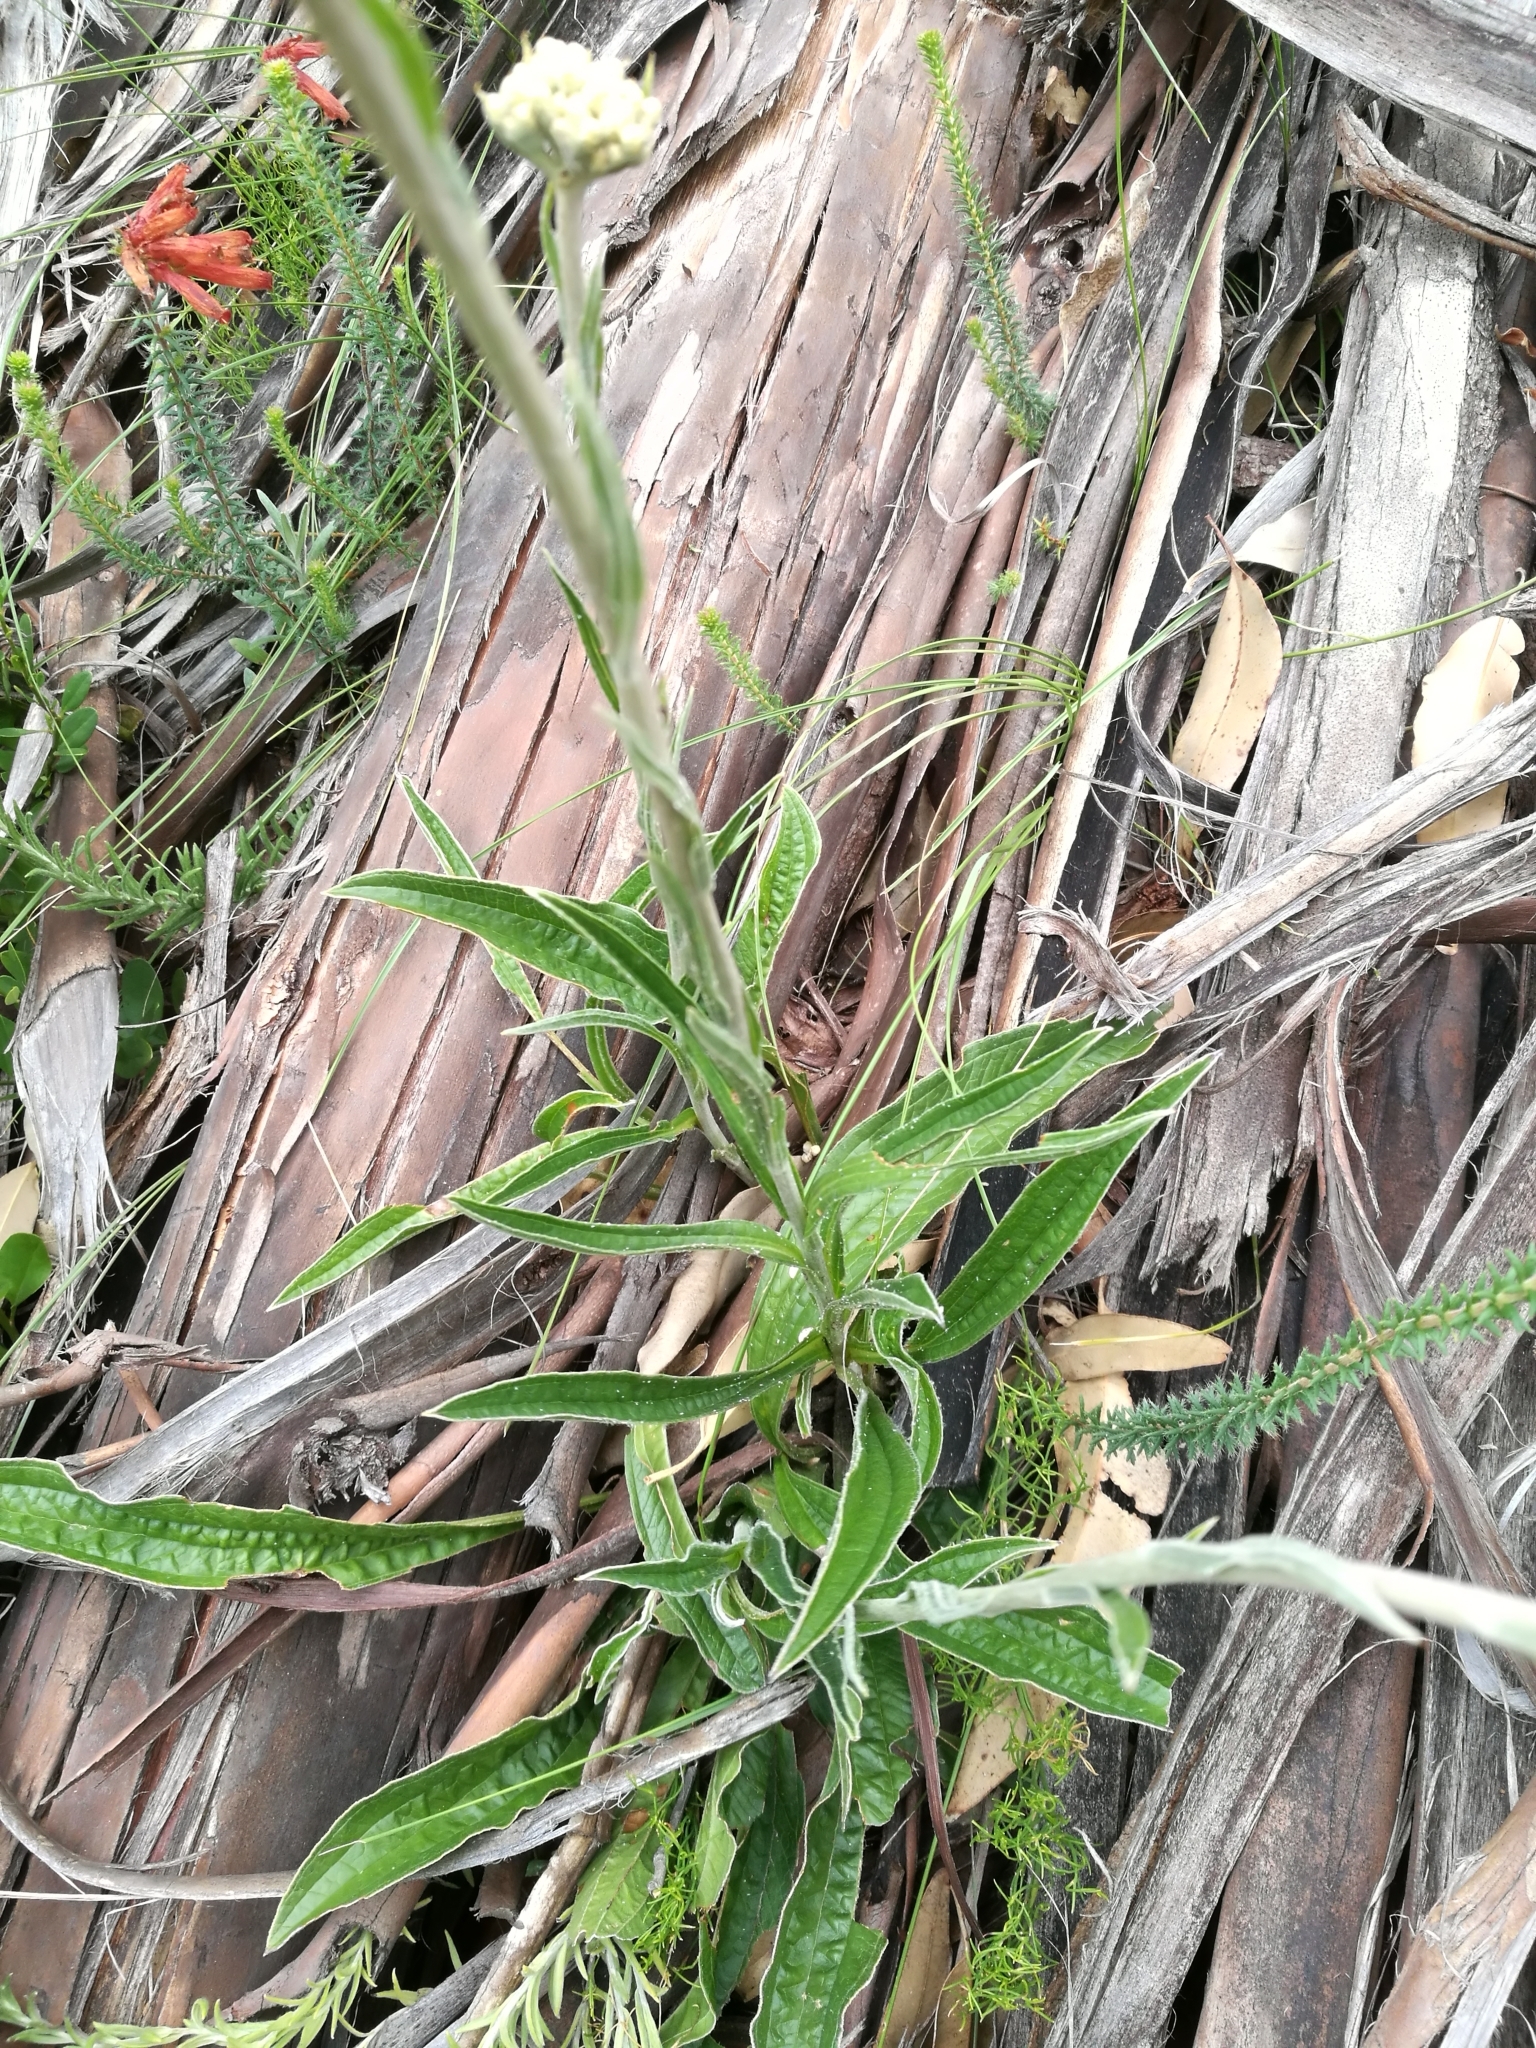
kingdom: Plantae
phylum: Tracheophyta
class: Magnoliopsida
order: Asterales
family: Asteraceae
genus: Helichrysum
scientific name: Helichrysum nudifolium
